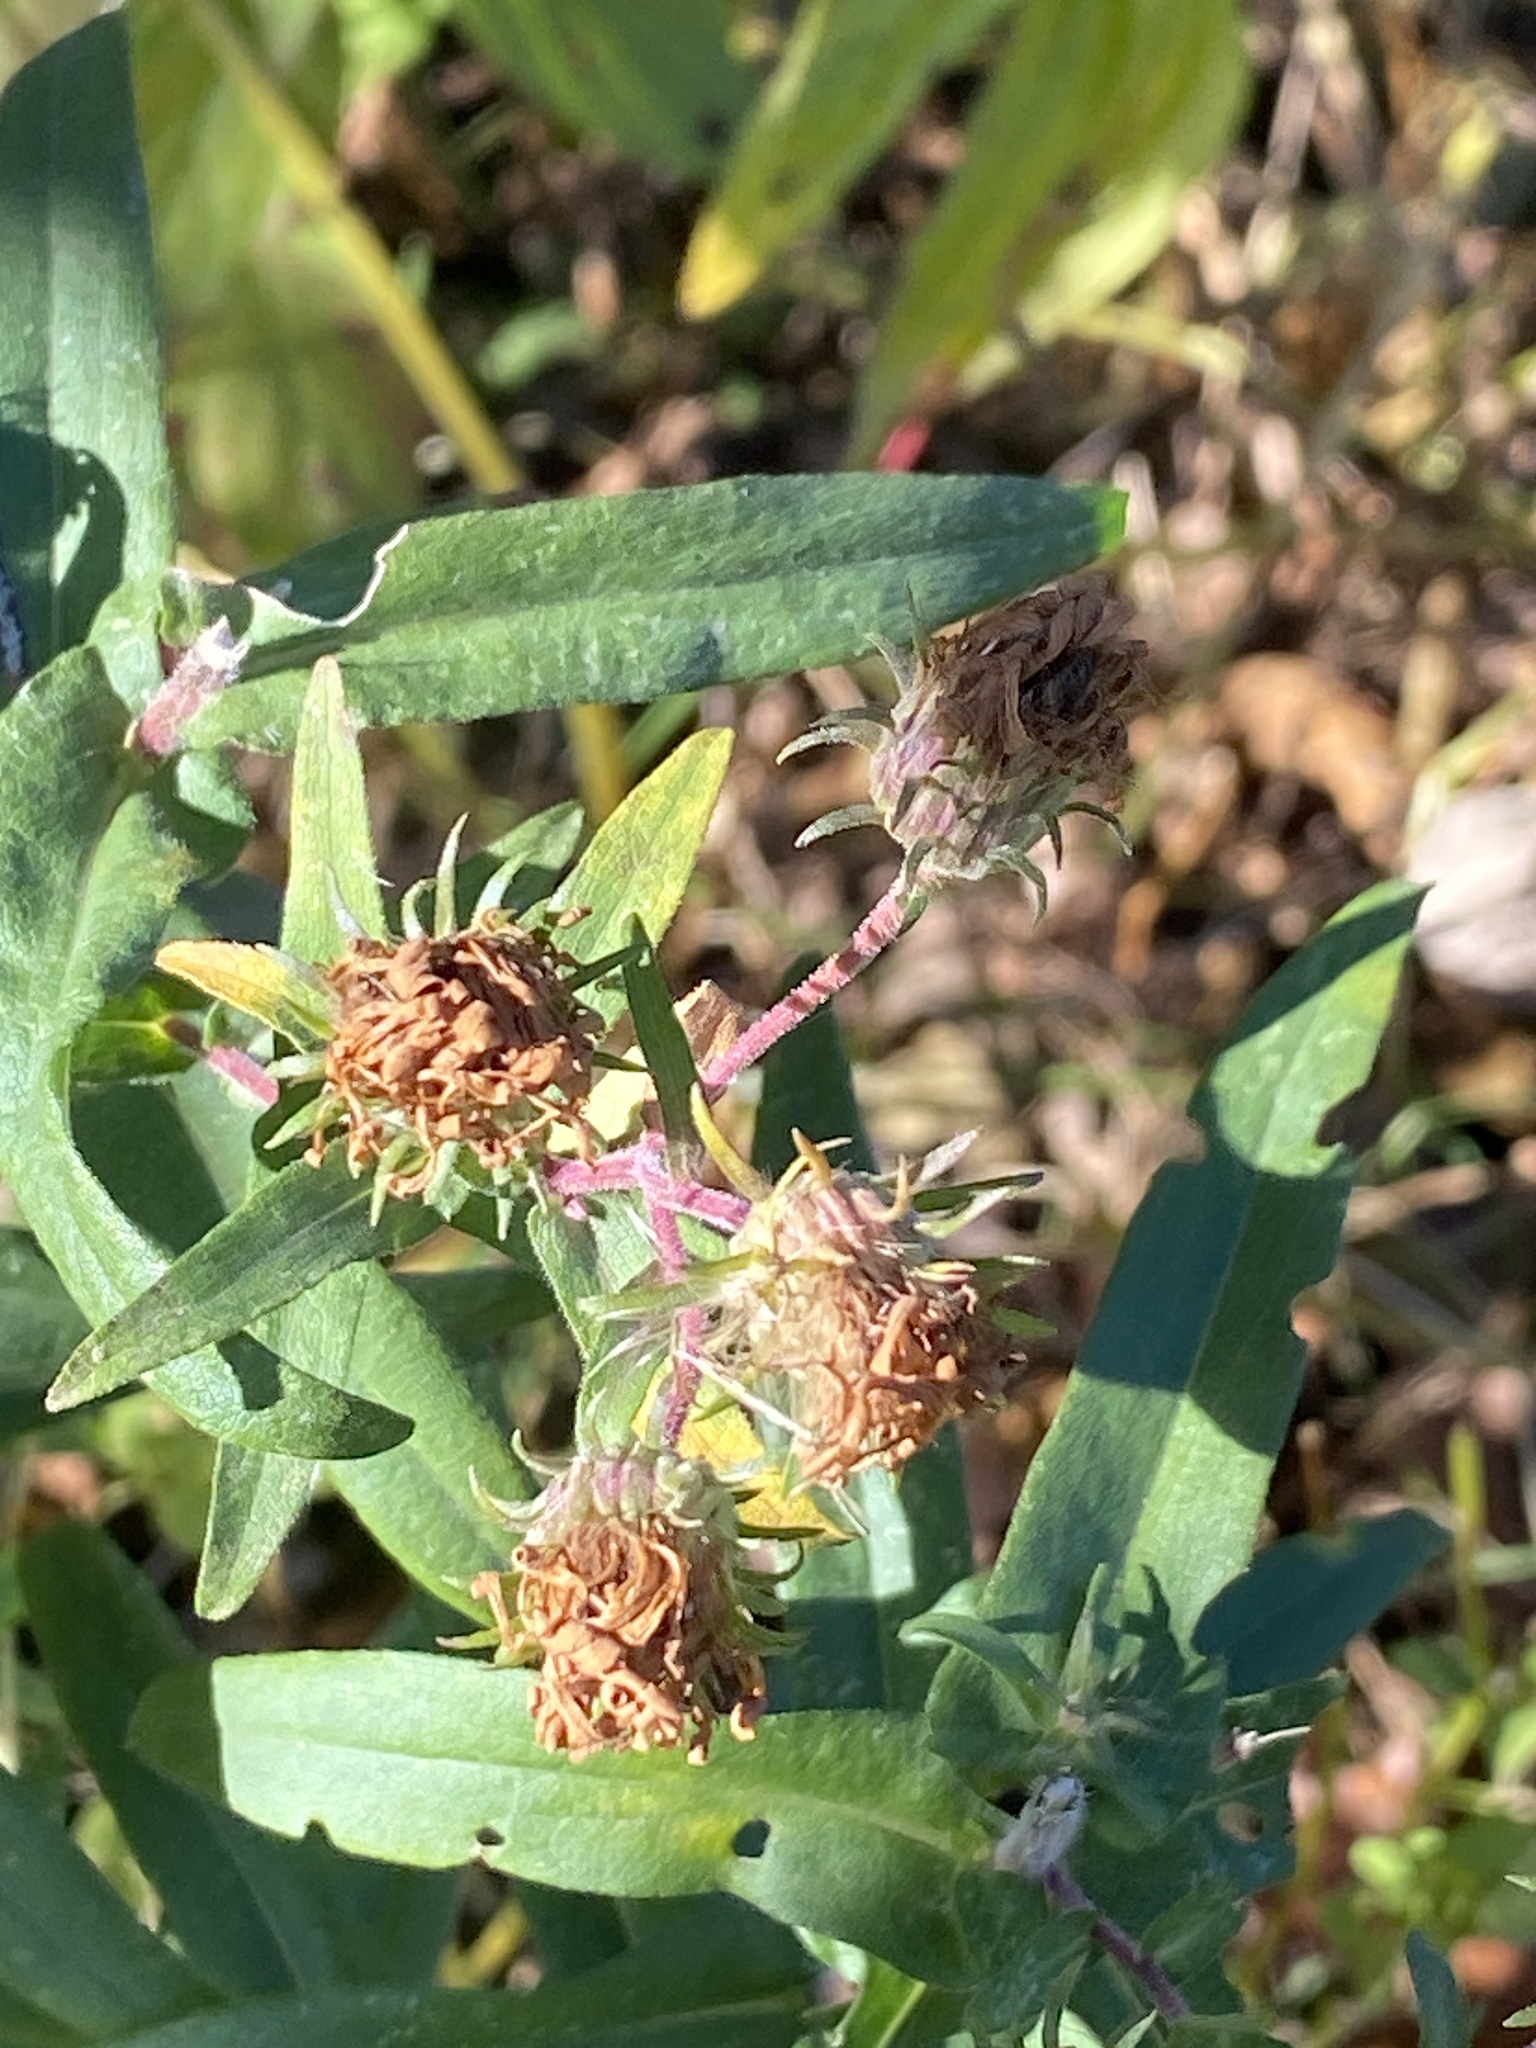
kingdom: Plantae
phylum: Tracheophyta
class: Magnoliopsida
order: Asterales
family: Asteraceae
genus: Symphyotrichum
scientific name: Symphyotrichum novae-angliae
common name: Michaelmas daisy
